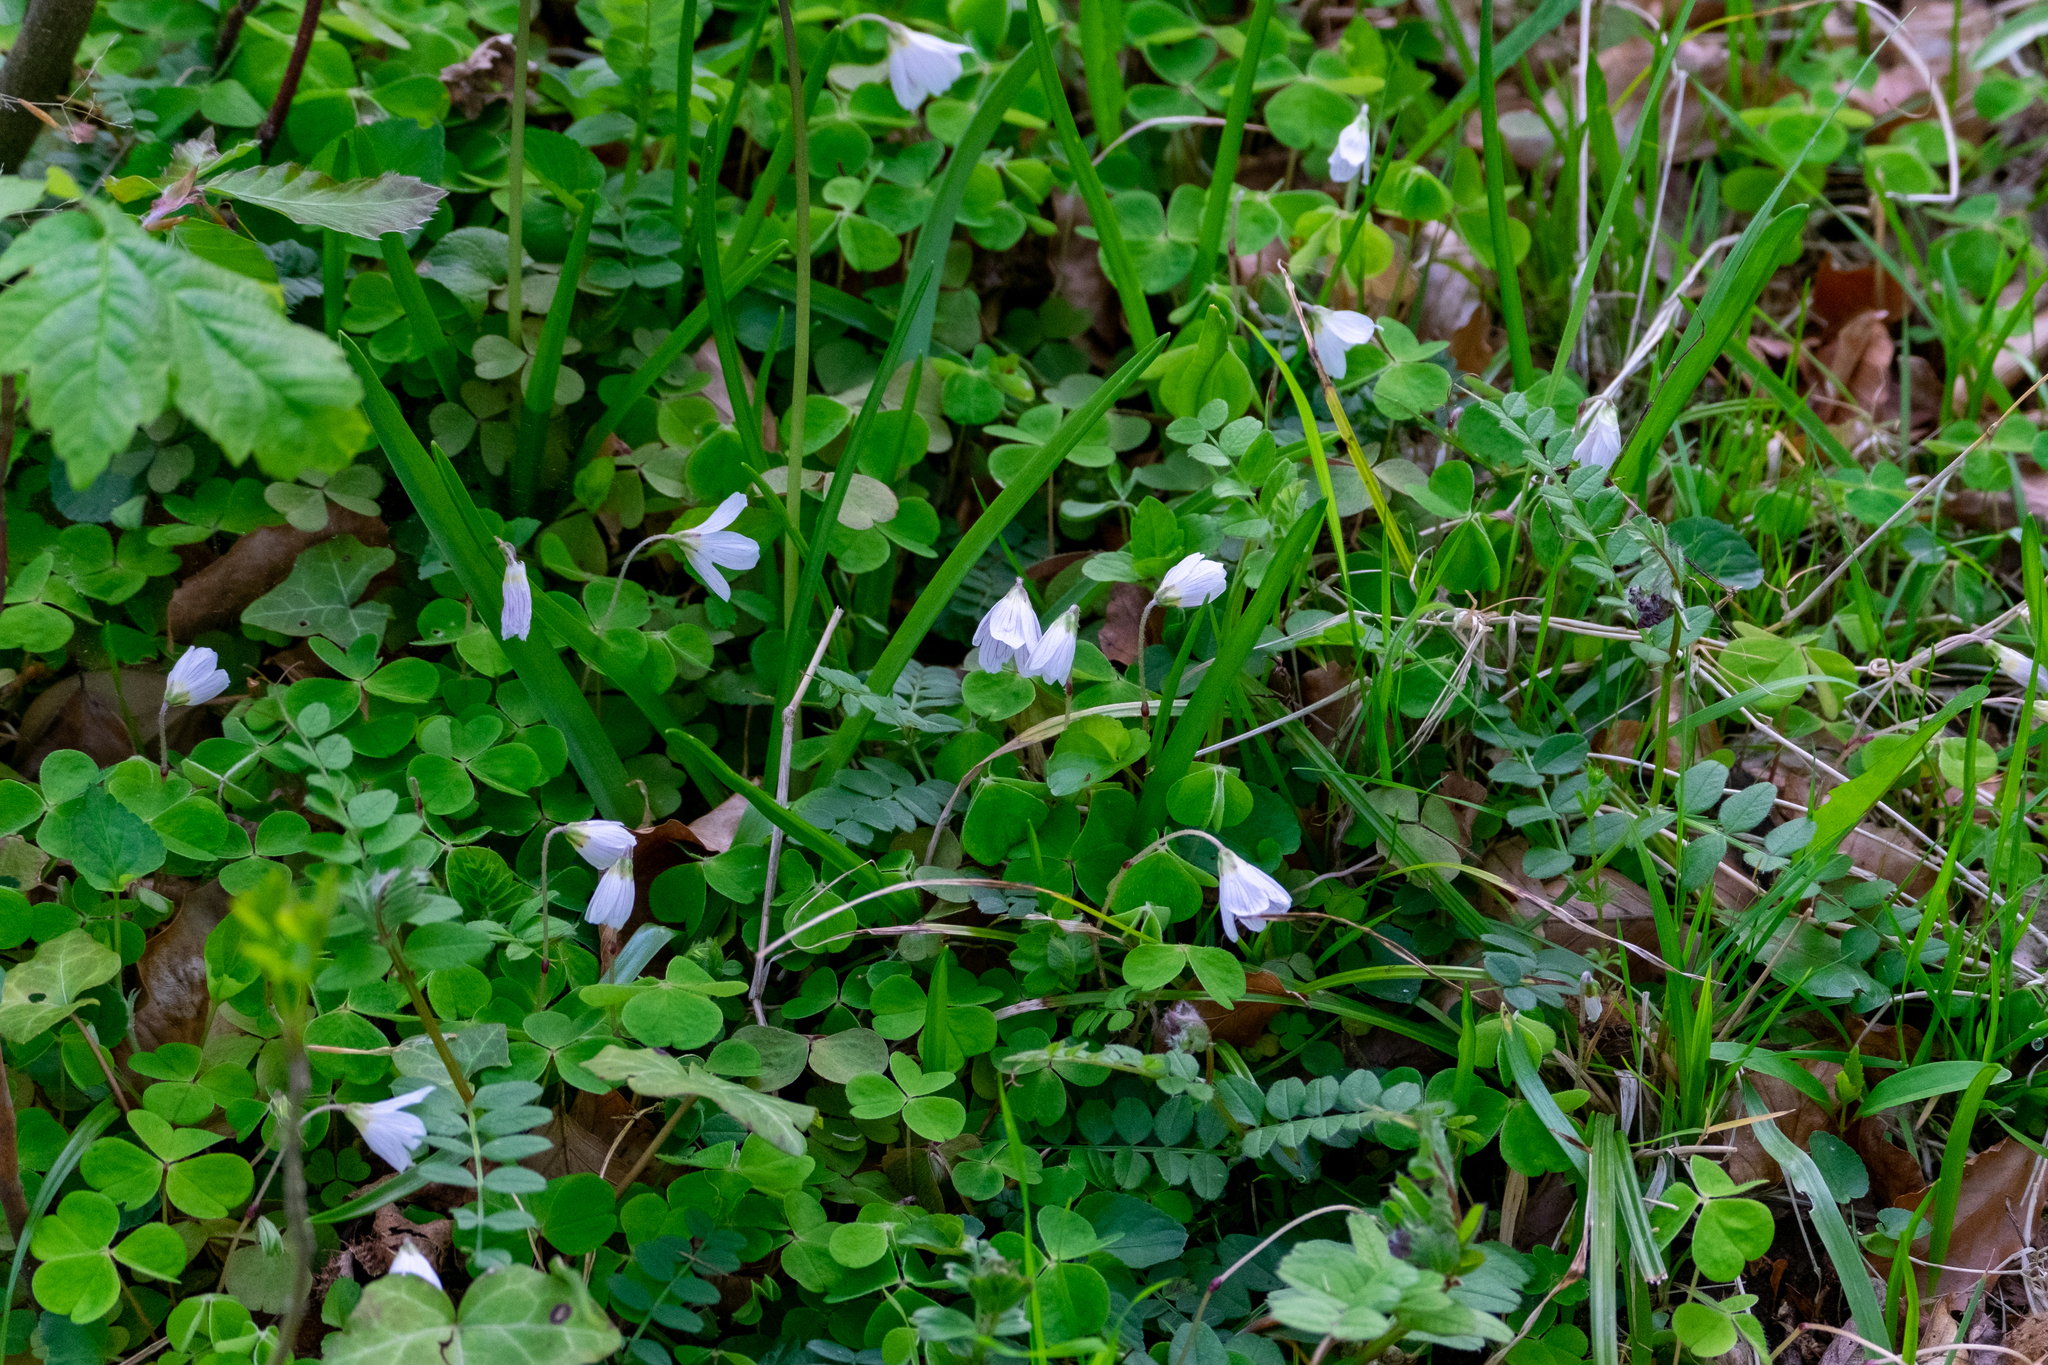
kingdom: Plantae
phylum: Tracheophyta
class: Magnoliopsida
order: Oxalidales
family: Oxalidaceae
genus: Oxalis
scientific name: Oxalis acetosella
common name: Wood-sorrel
